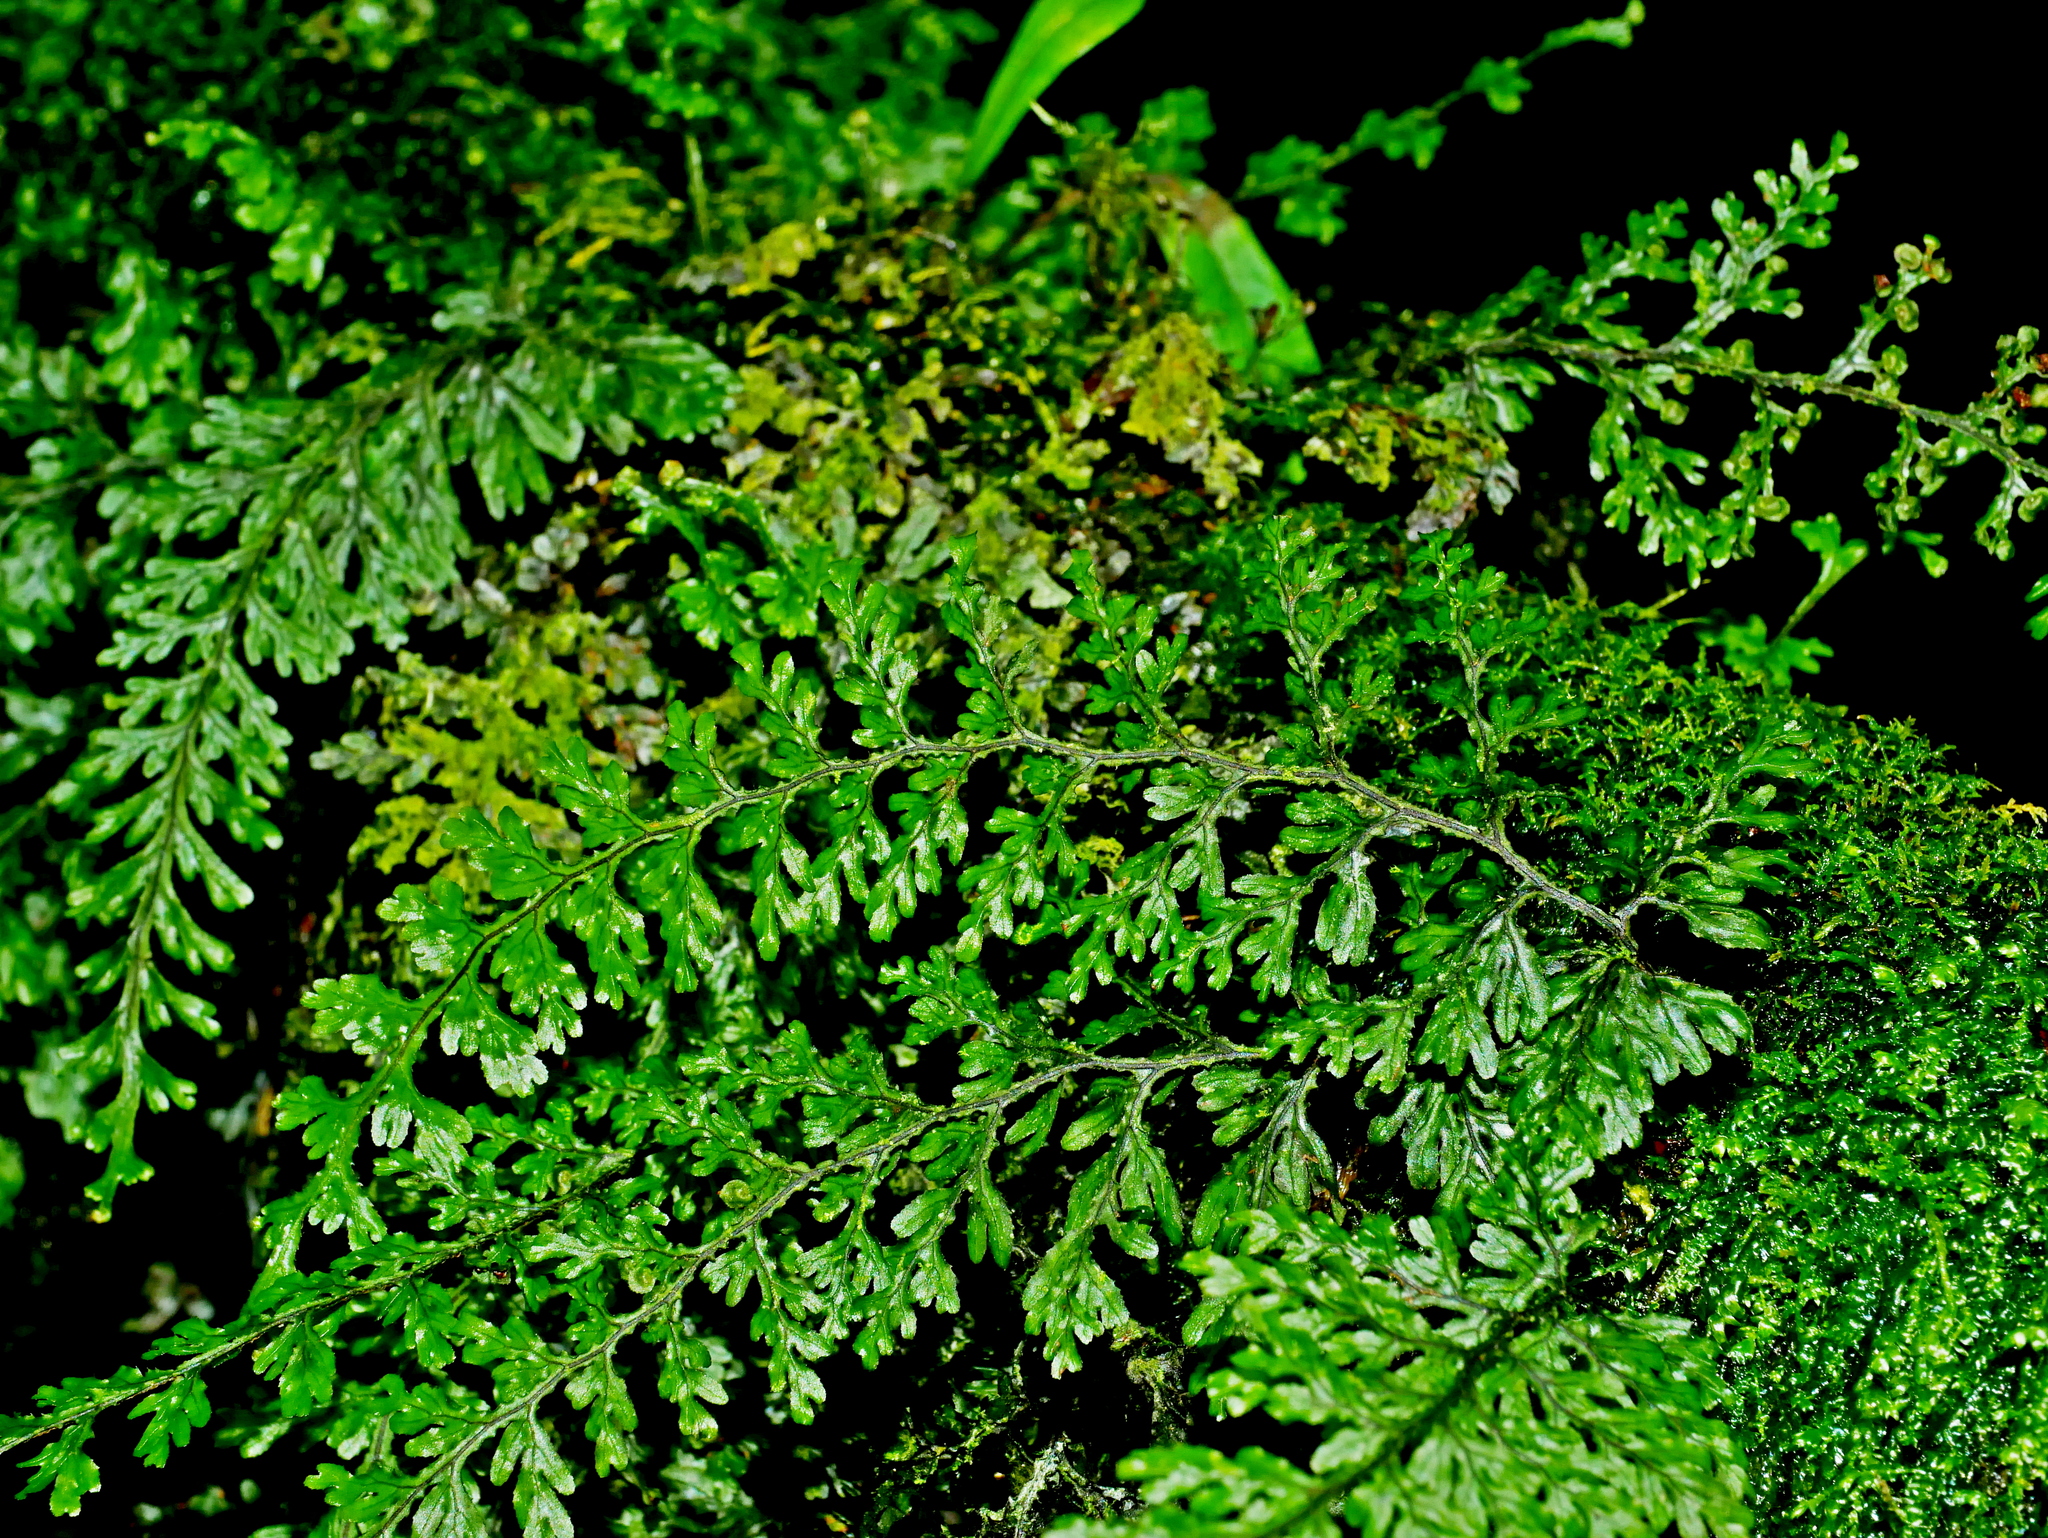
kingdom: Plantae
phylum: Tracheophyta
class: Polypodiopsida
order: Hymenophyllales
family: Hymenophyllaceae
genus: Hymenophyllum
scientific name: Hymenophyllum okadae
